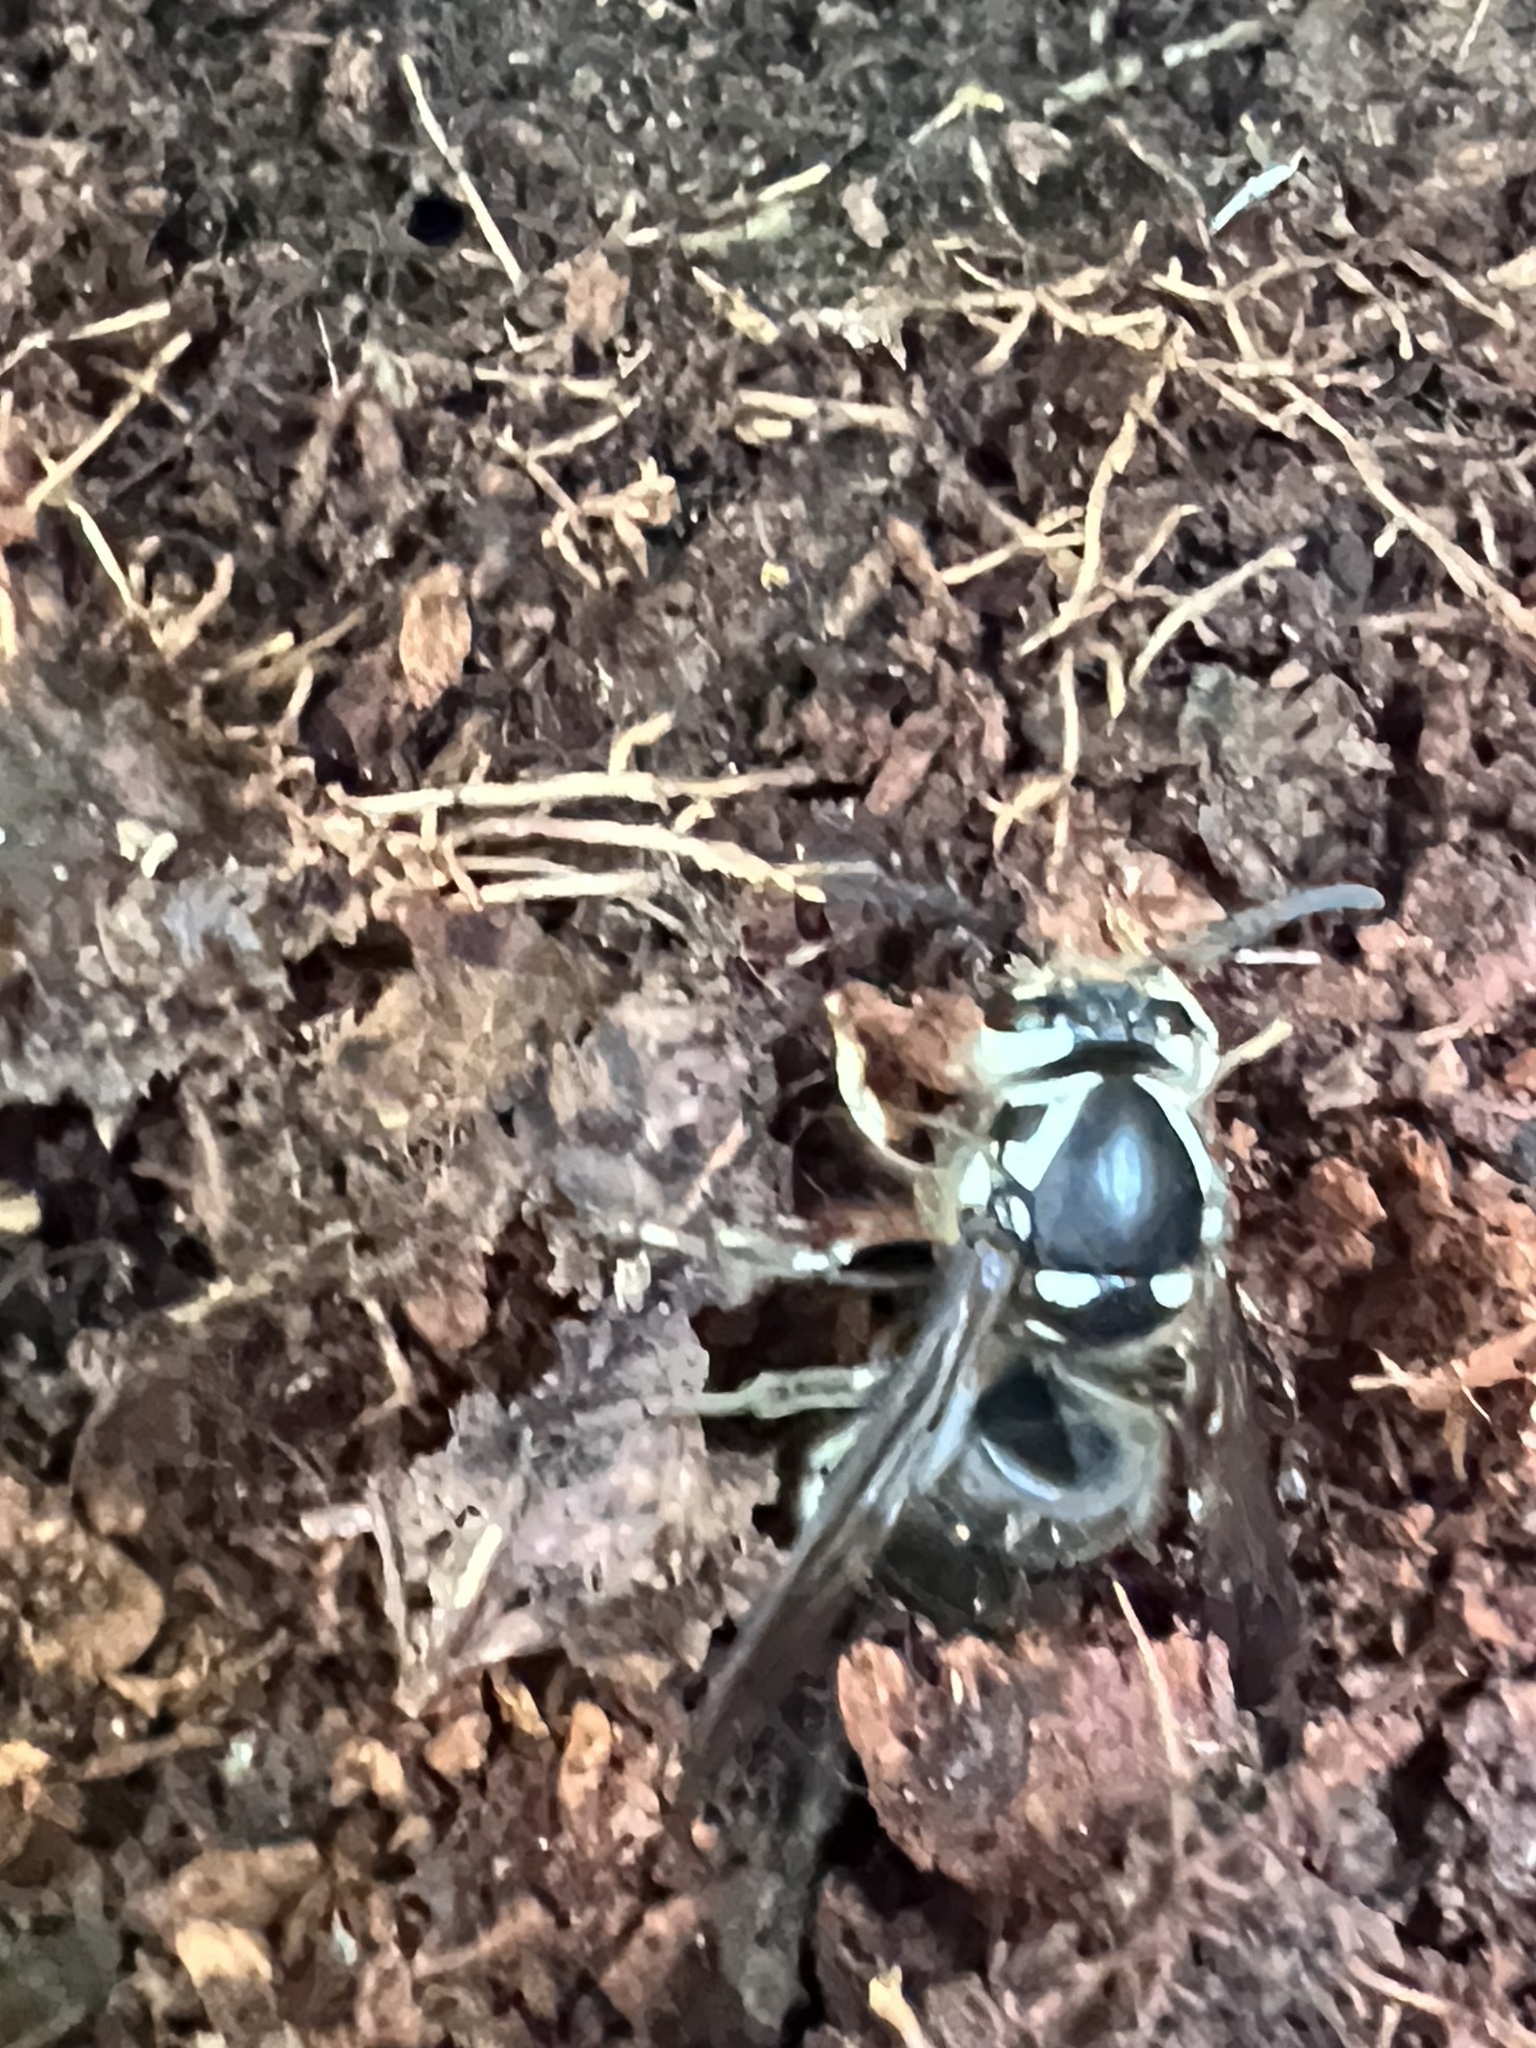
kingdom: Animalia
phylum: Arthropoda
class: Insecta
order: Hymenoptera
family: Vespidae
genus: Dolichovespula
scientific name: Dolichovespula maculata
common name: Bald-faced hornet
